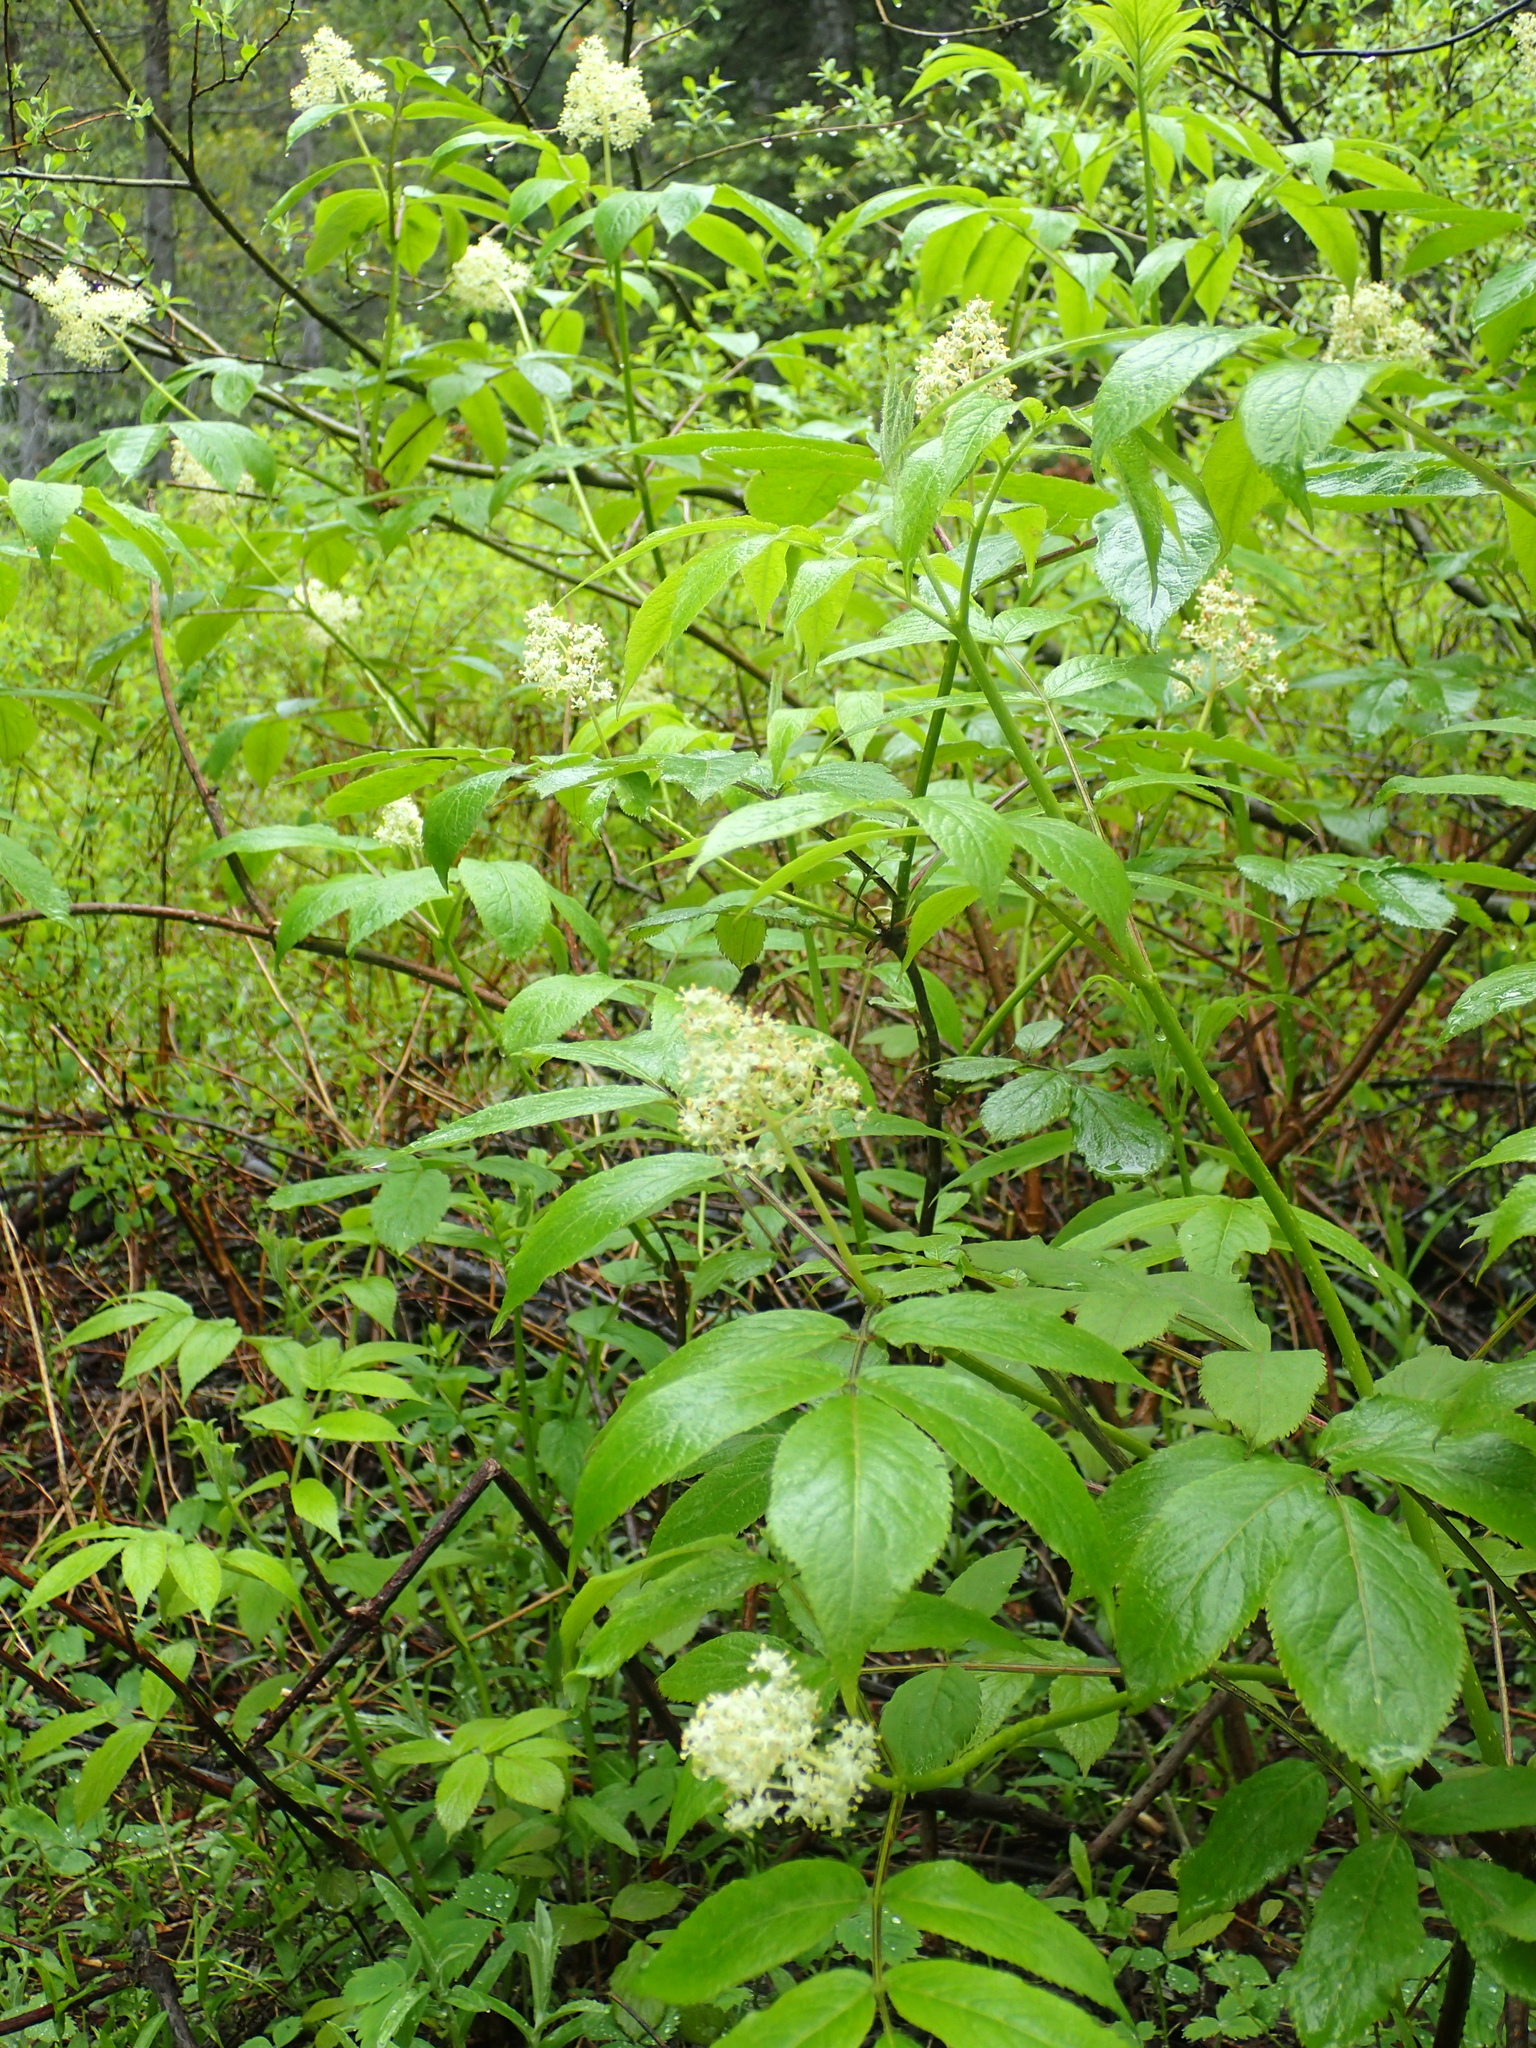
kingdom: Plantae
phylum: Tracheophyta
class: Magnoliopsida
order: Dipsacales
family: Viburnaceae
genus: Sambucus
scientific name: Sambucus racemosa
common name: Red-berried elder
